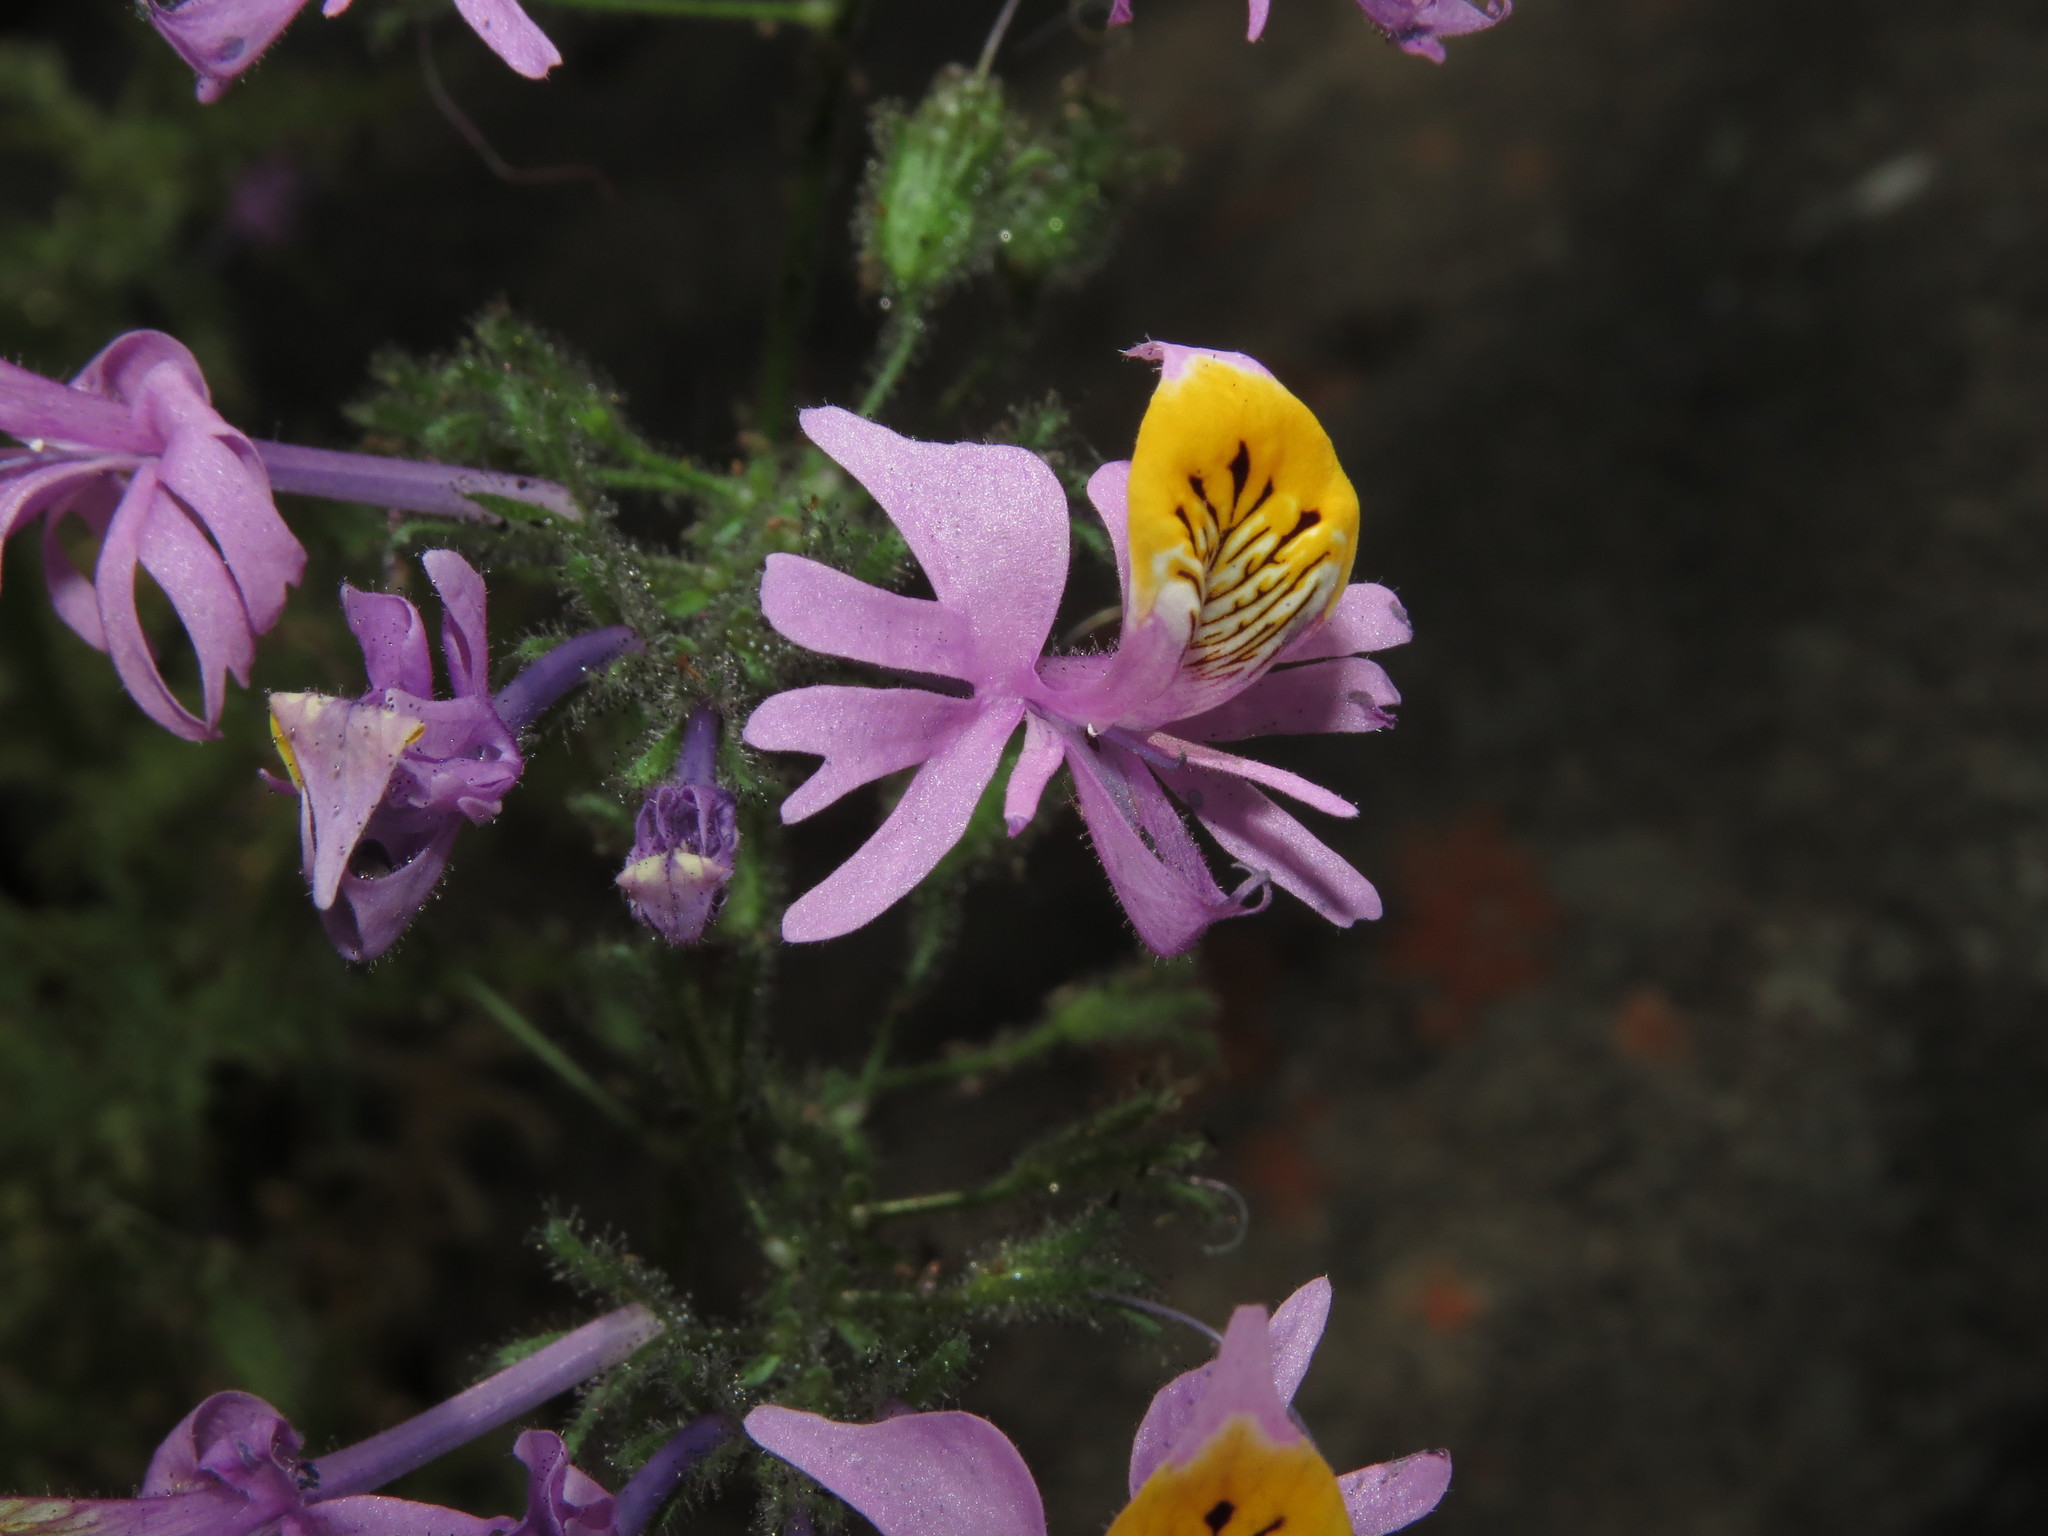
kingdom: Plantae
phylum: Tracheophyta
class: Magnoliopsida
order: Solanales
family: Solanaceae
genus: Schizanthus
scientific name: Schizanthus hookeri
